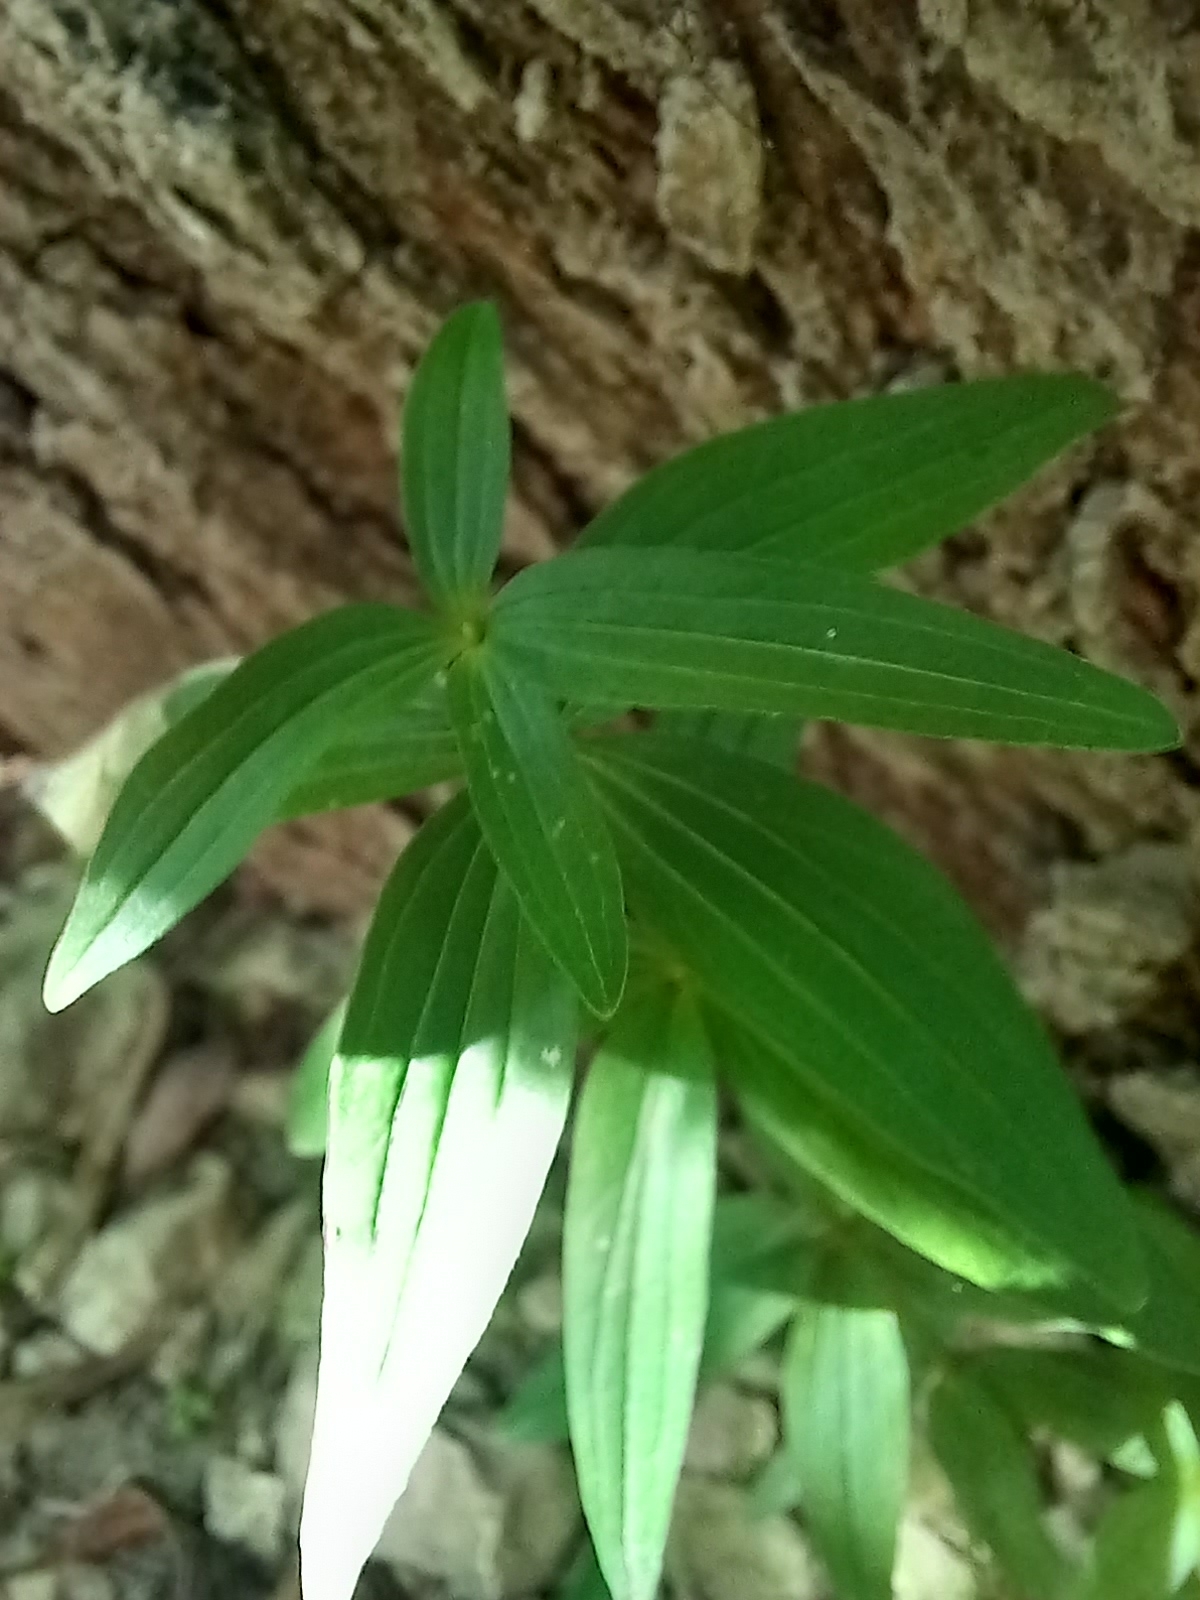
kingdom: Plantae
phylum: Tracheophyta
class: Magnoliopsida
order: Gentianales
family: Rubiaceae
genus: Galium
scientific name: Galium rubioides
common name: European bedstraw
